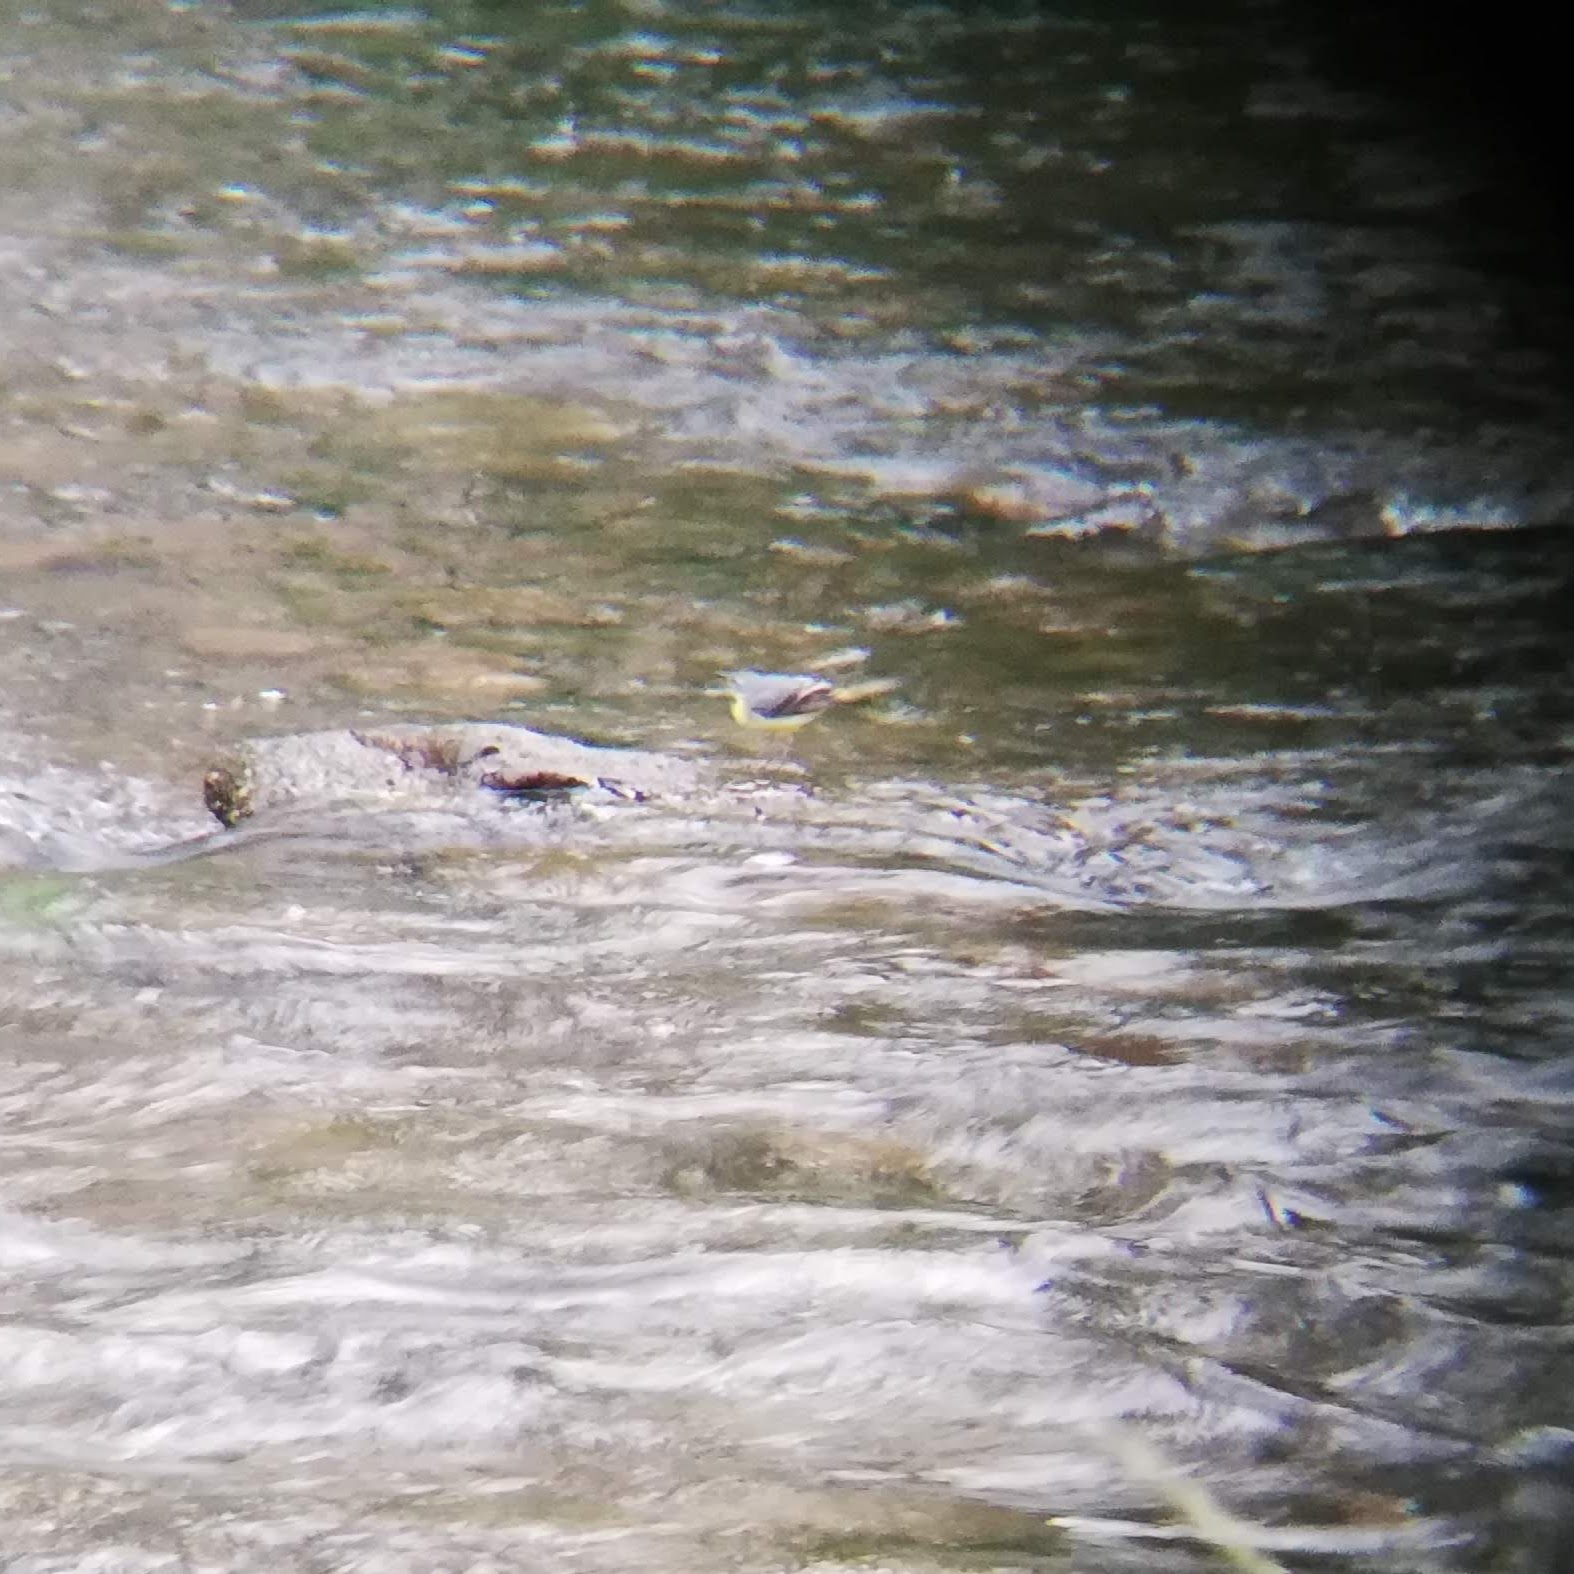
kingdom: Animalia
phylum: Chordata
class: Aves
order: Passeriformes
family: Motacillidae
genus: Motacilla
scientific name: Motacilla cinerea
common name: Grey wagtail
